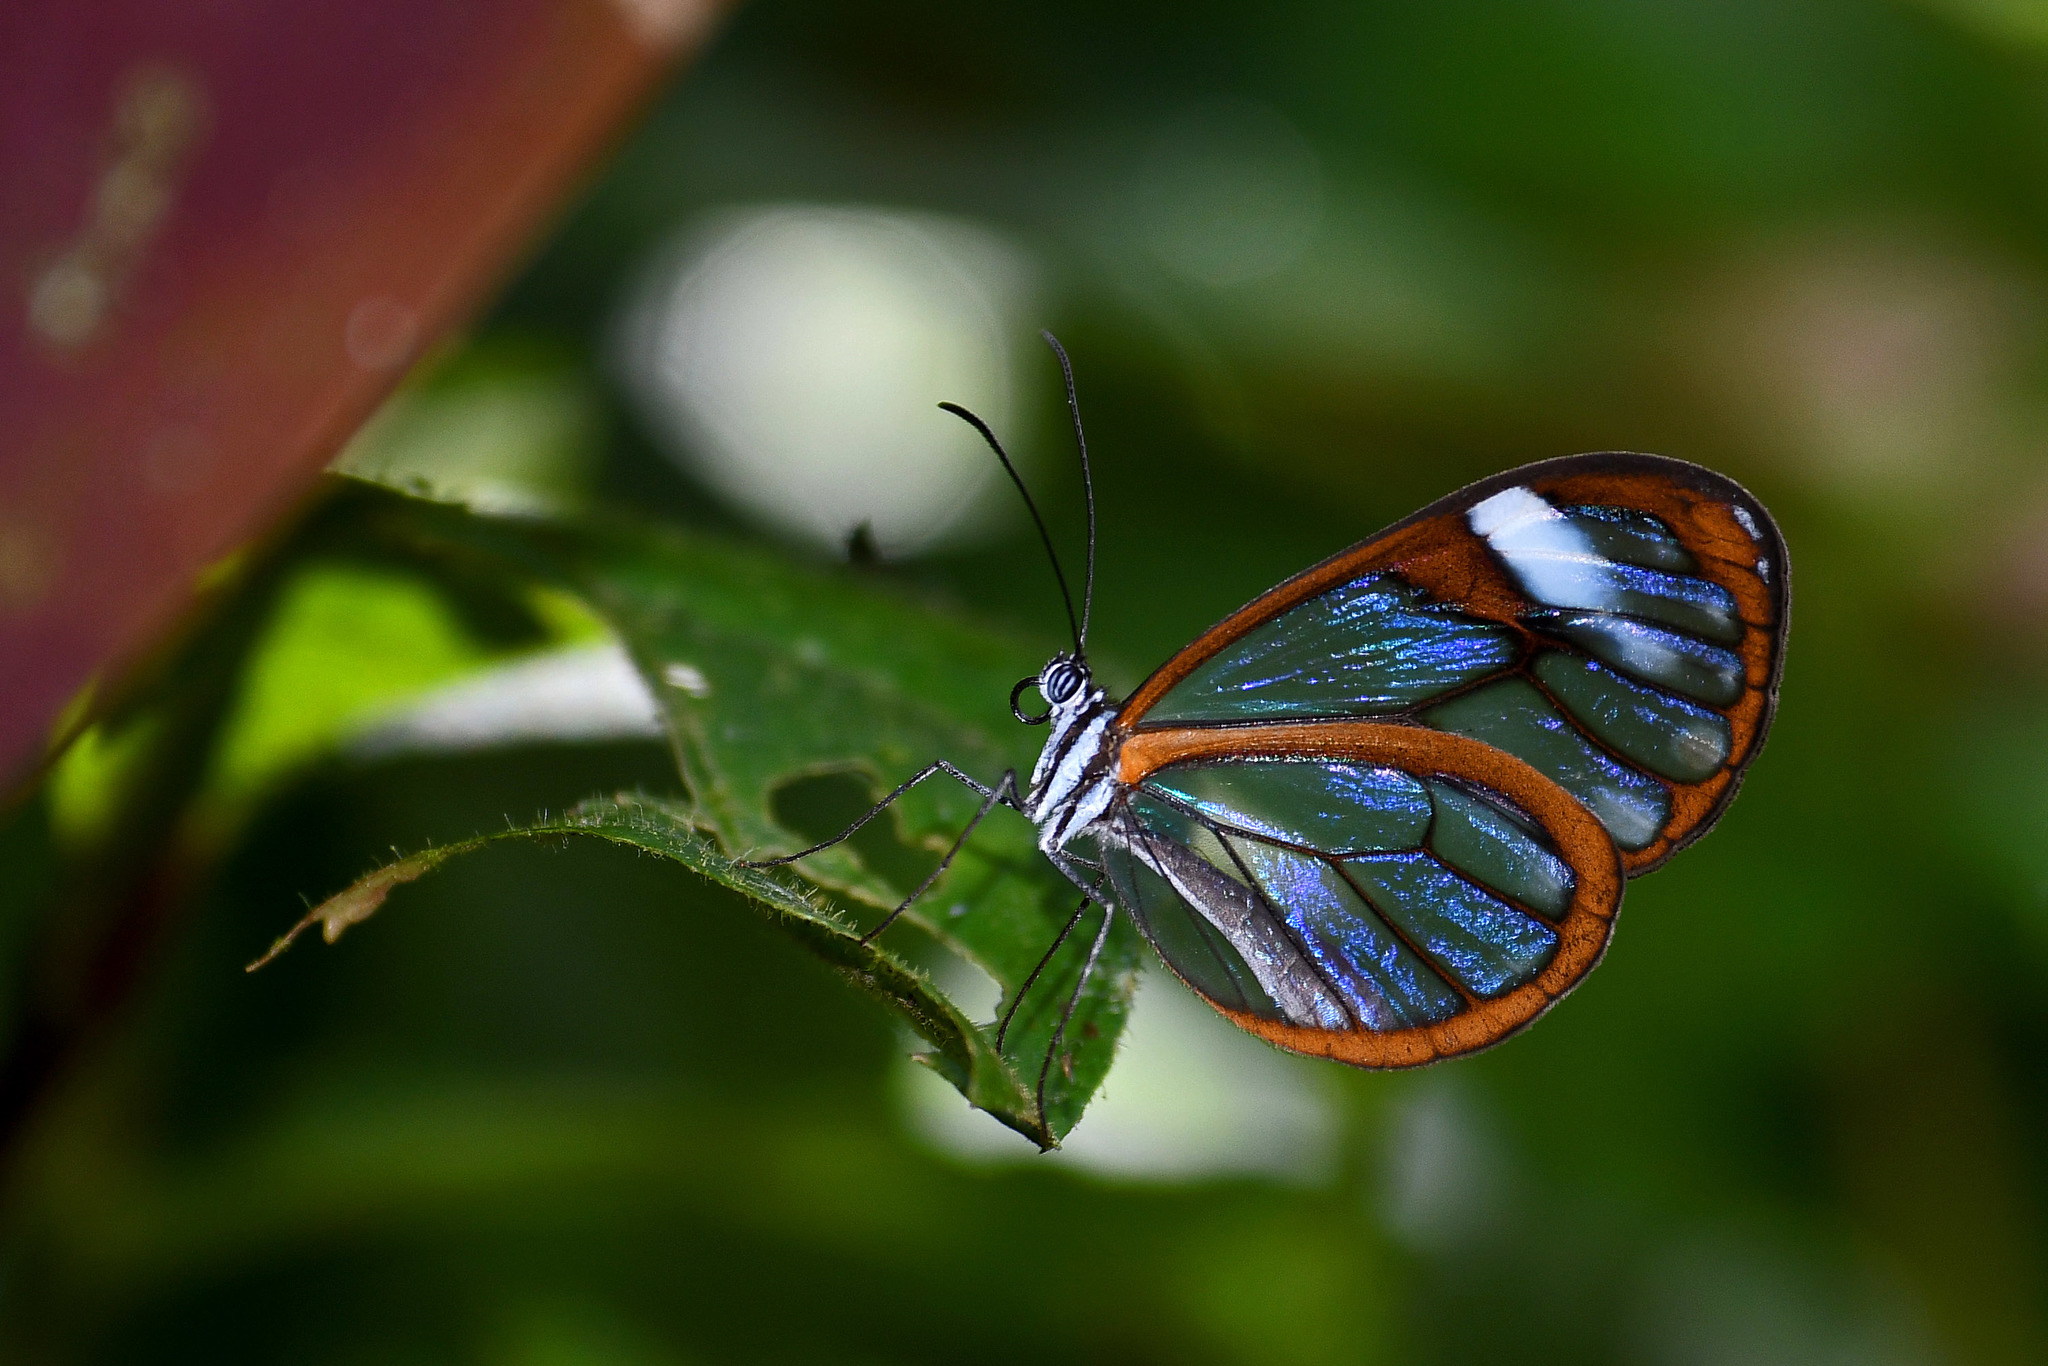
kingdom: Animalia
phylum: Arthropoda
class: Insecta
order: Lepidoptera
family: Nymphalidae
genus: Pseudoscada
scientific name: Pseudoscada pusio
